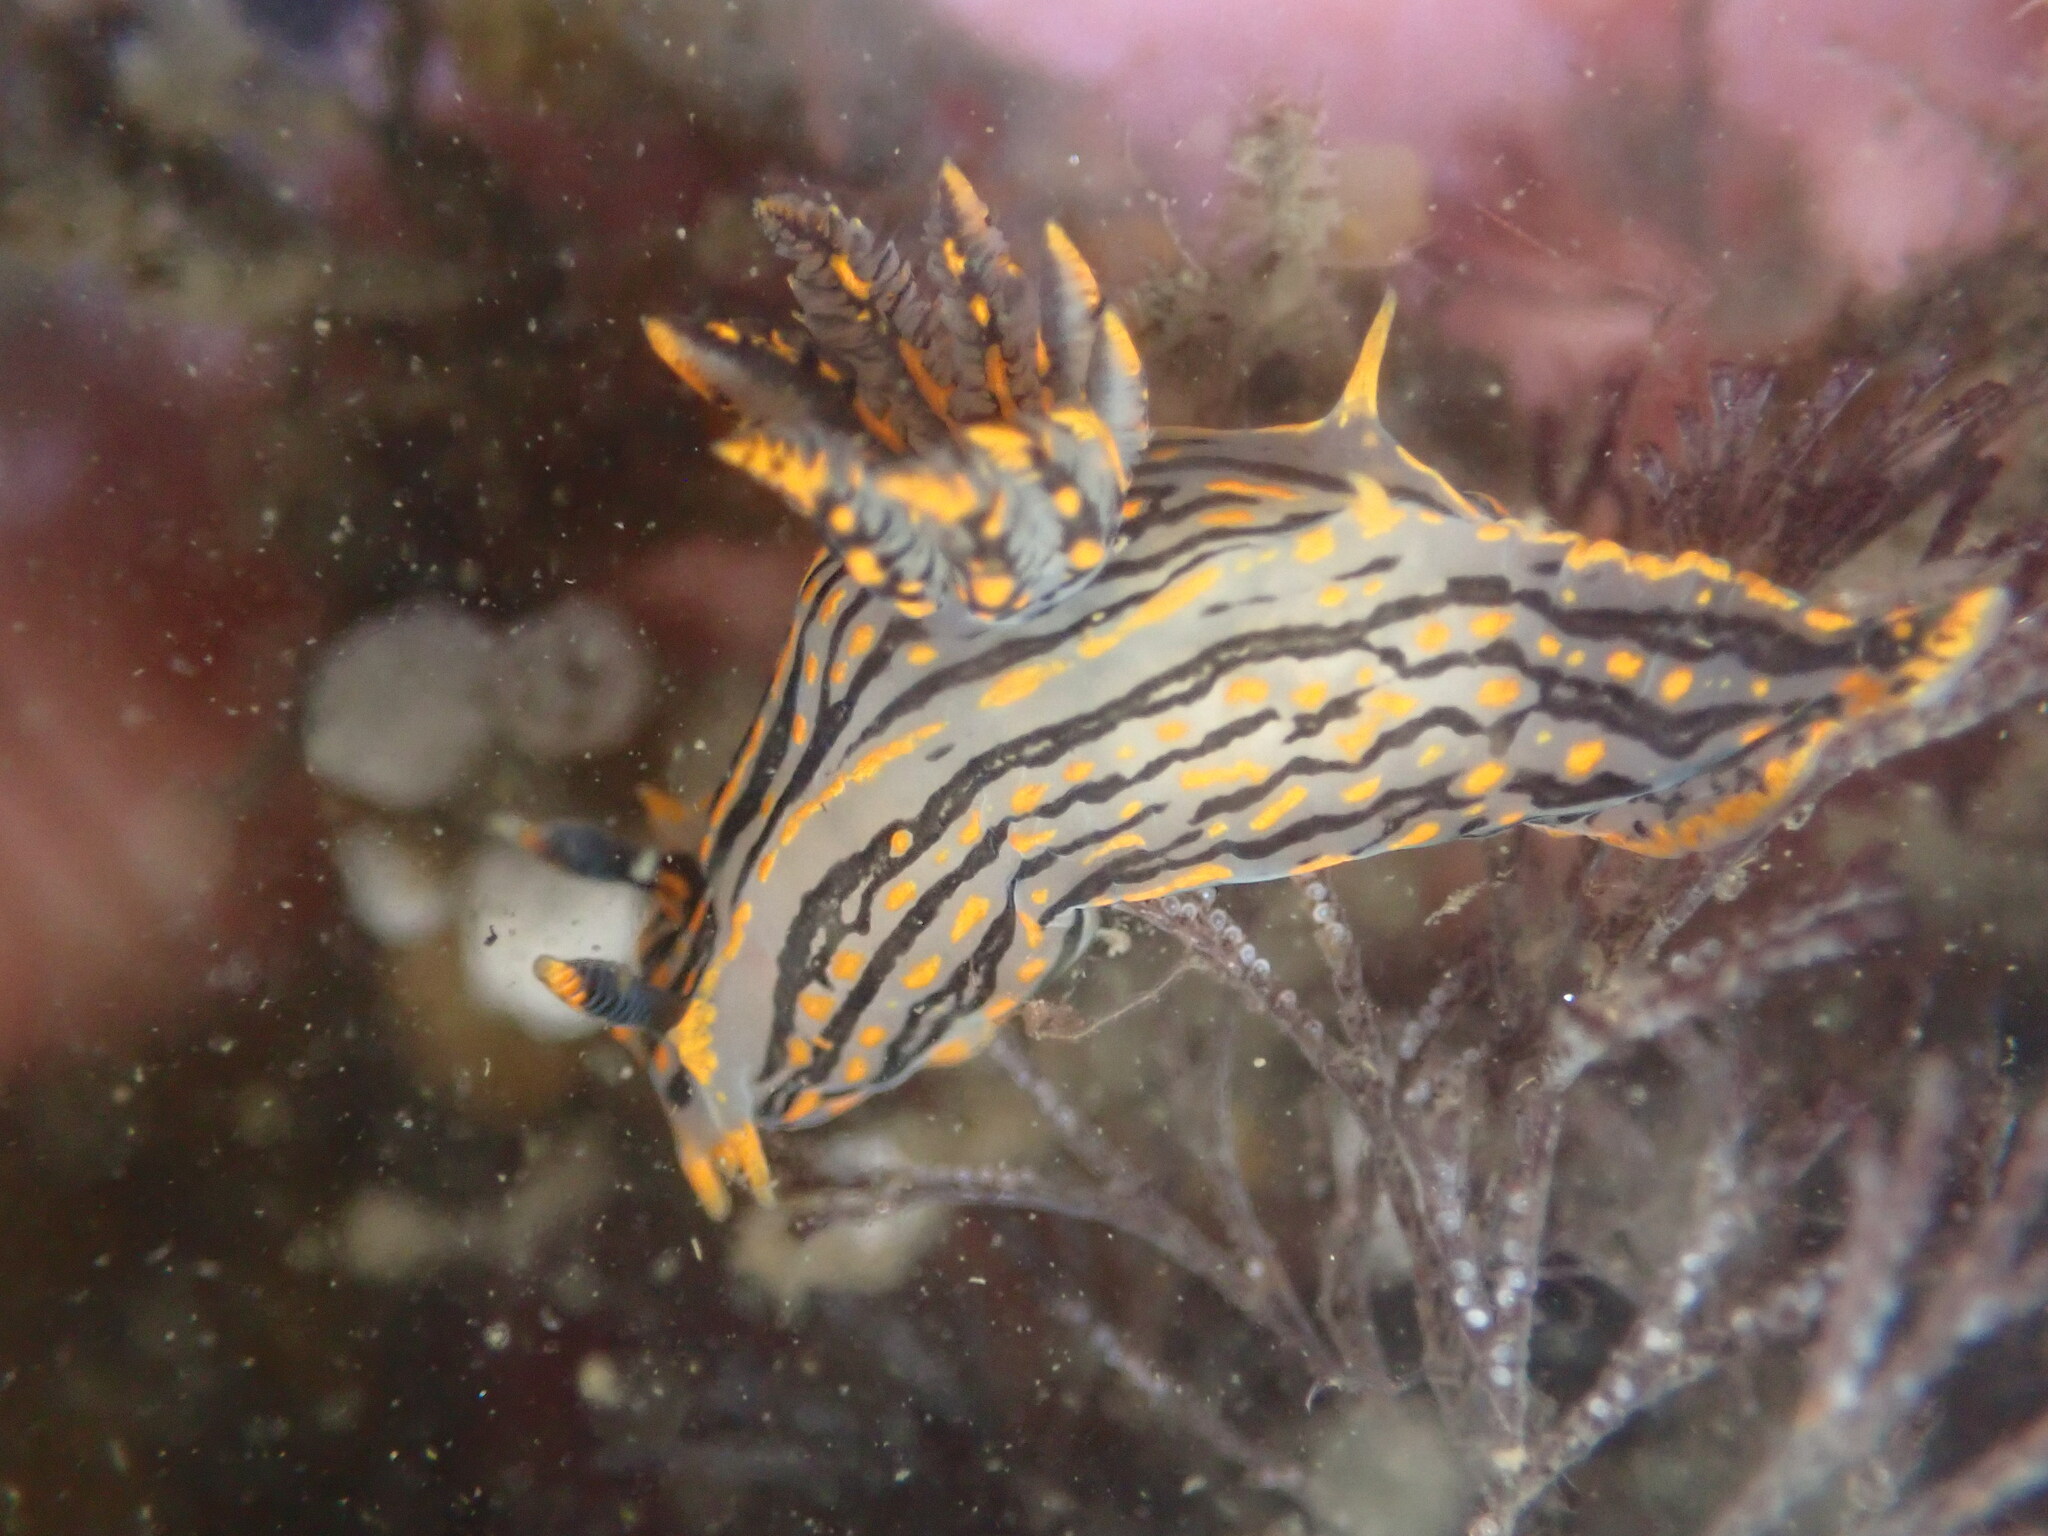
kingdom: Animalia
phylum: Mollusca
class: Gastropoda
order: Nudibranchia
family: Polyceridae
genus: Polycera
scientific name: Polycera atra
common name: Orange-spike polycera
